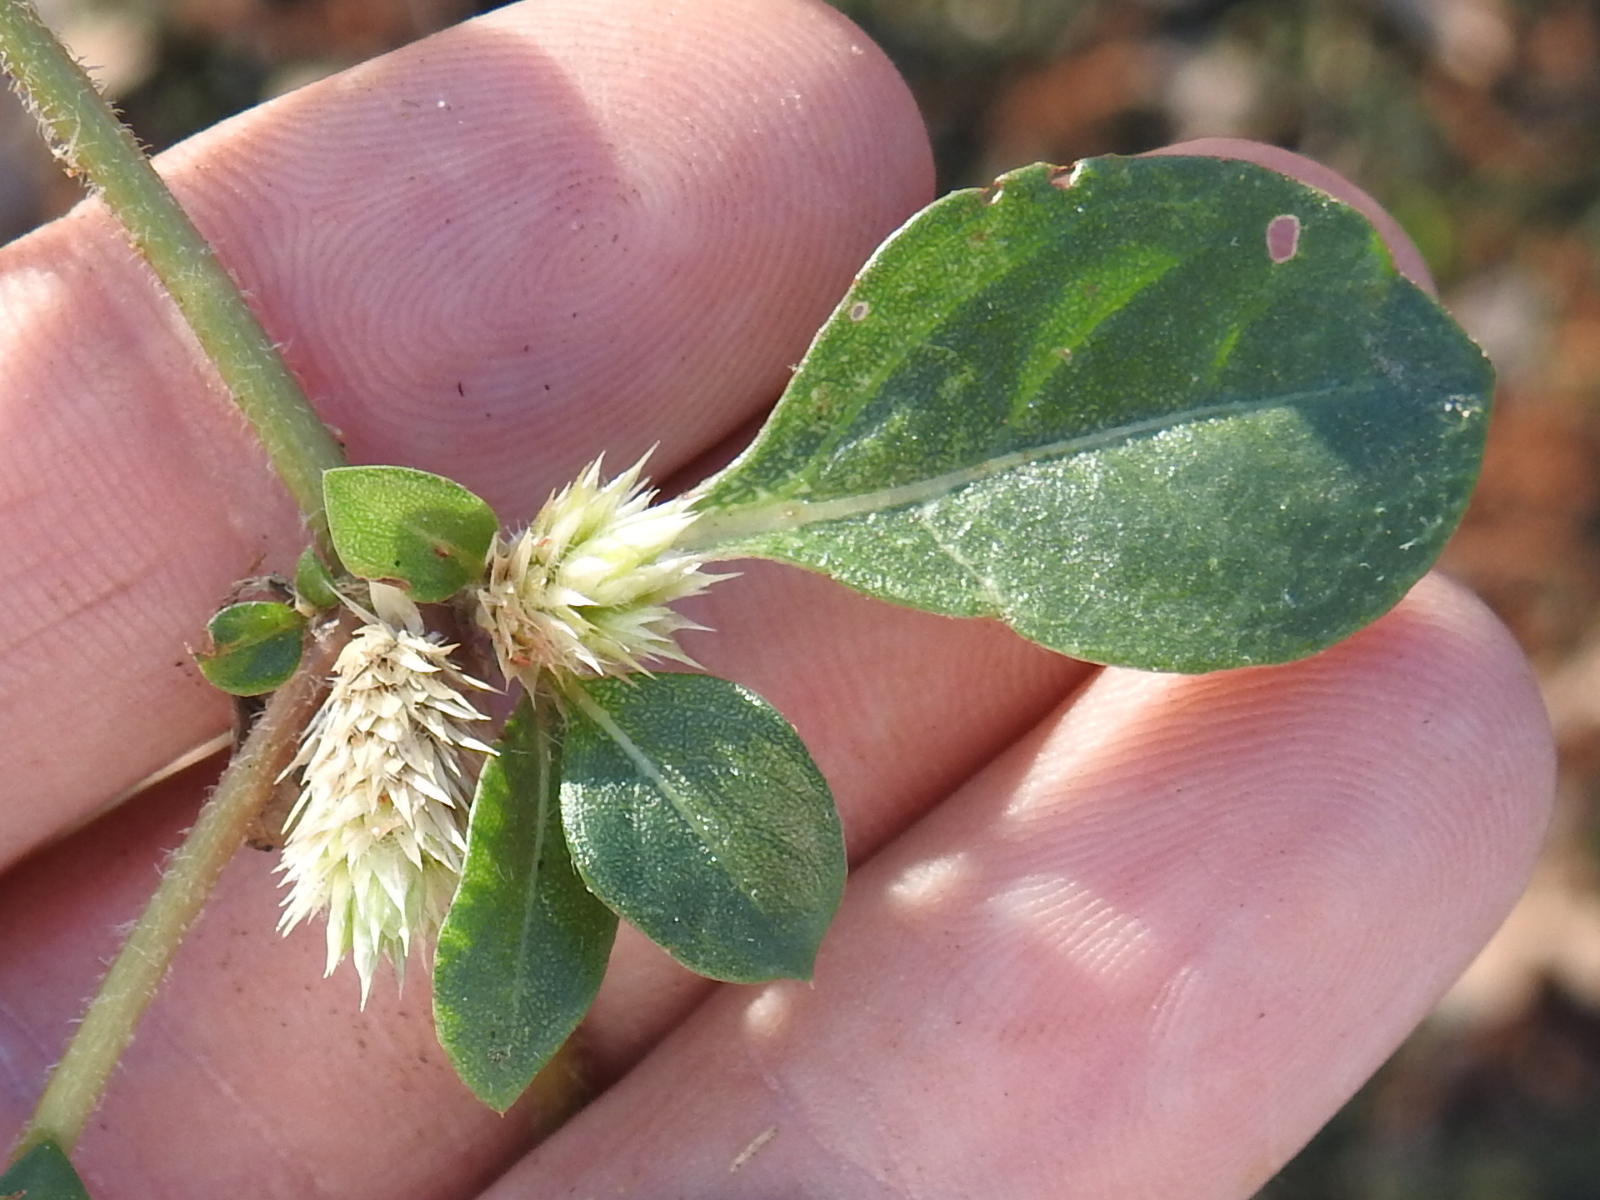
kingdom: Plantae
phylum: Tracheophyta
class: Magnoliopsida
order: Caryophyllales
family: Amaranthaceae
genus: Alternanthera
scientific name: Alternanthera pungens
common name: Khakiweed
